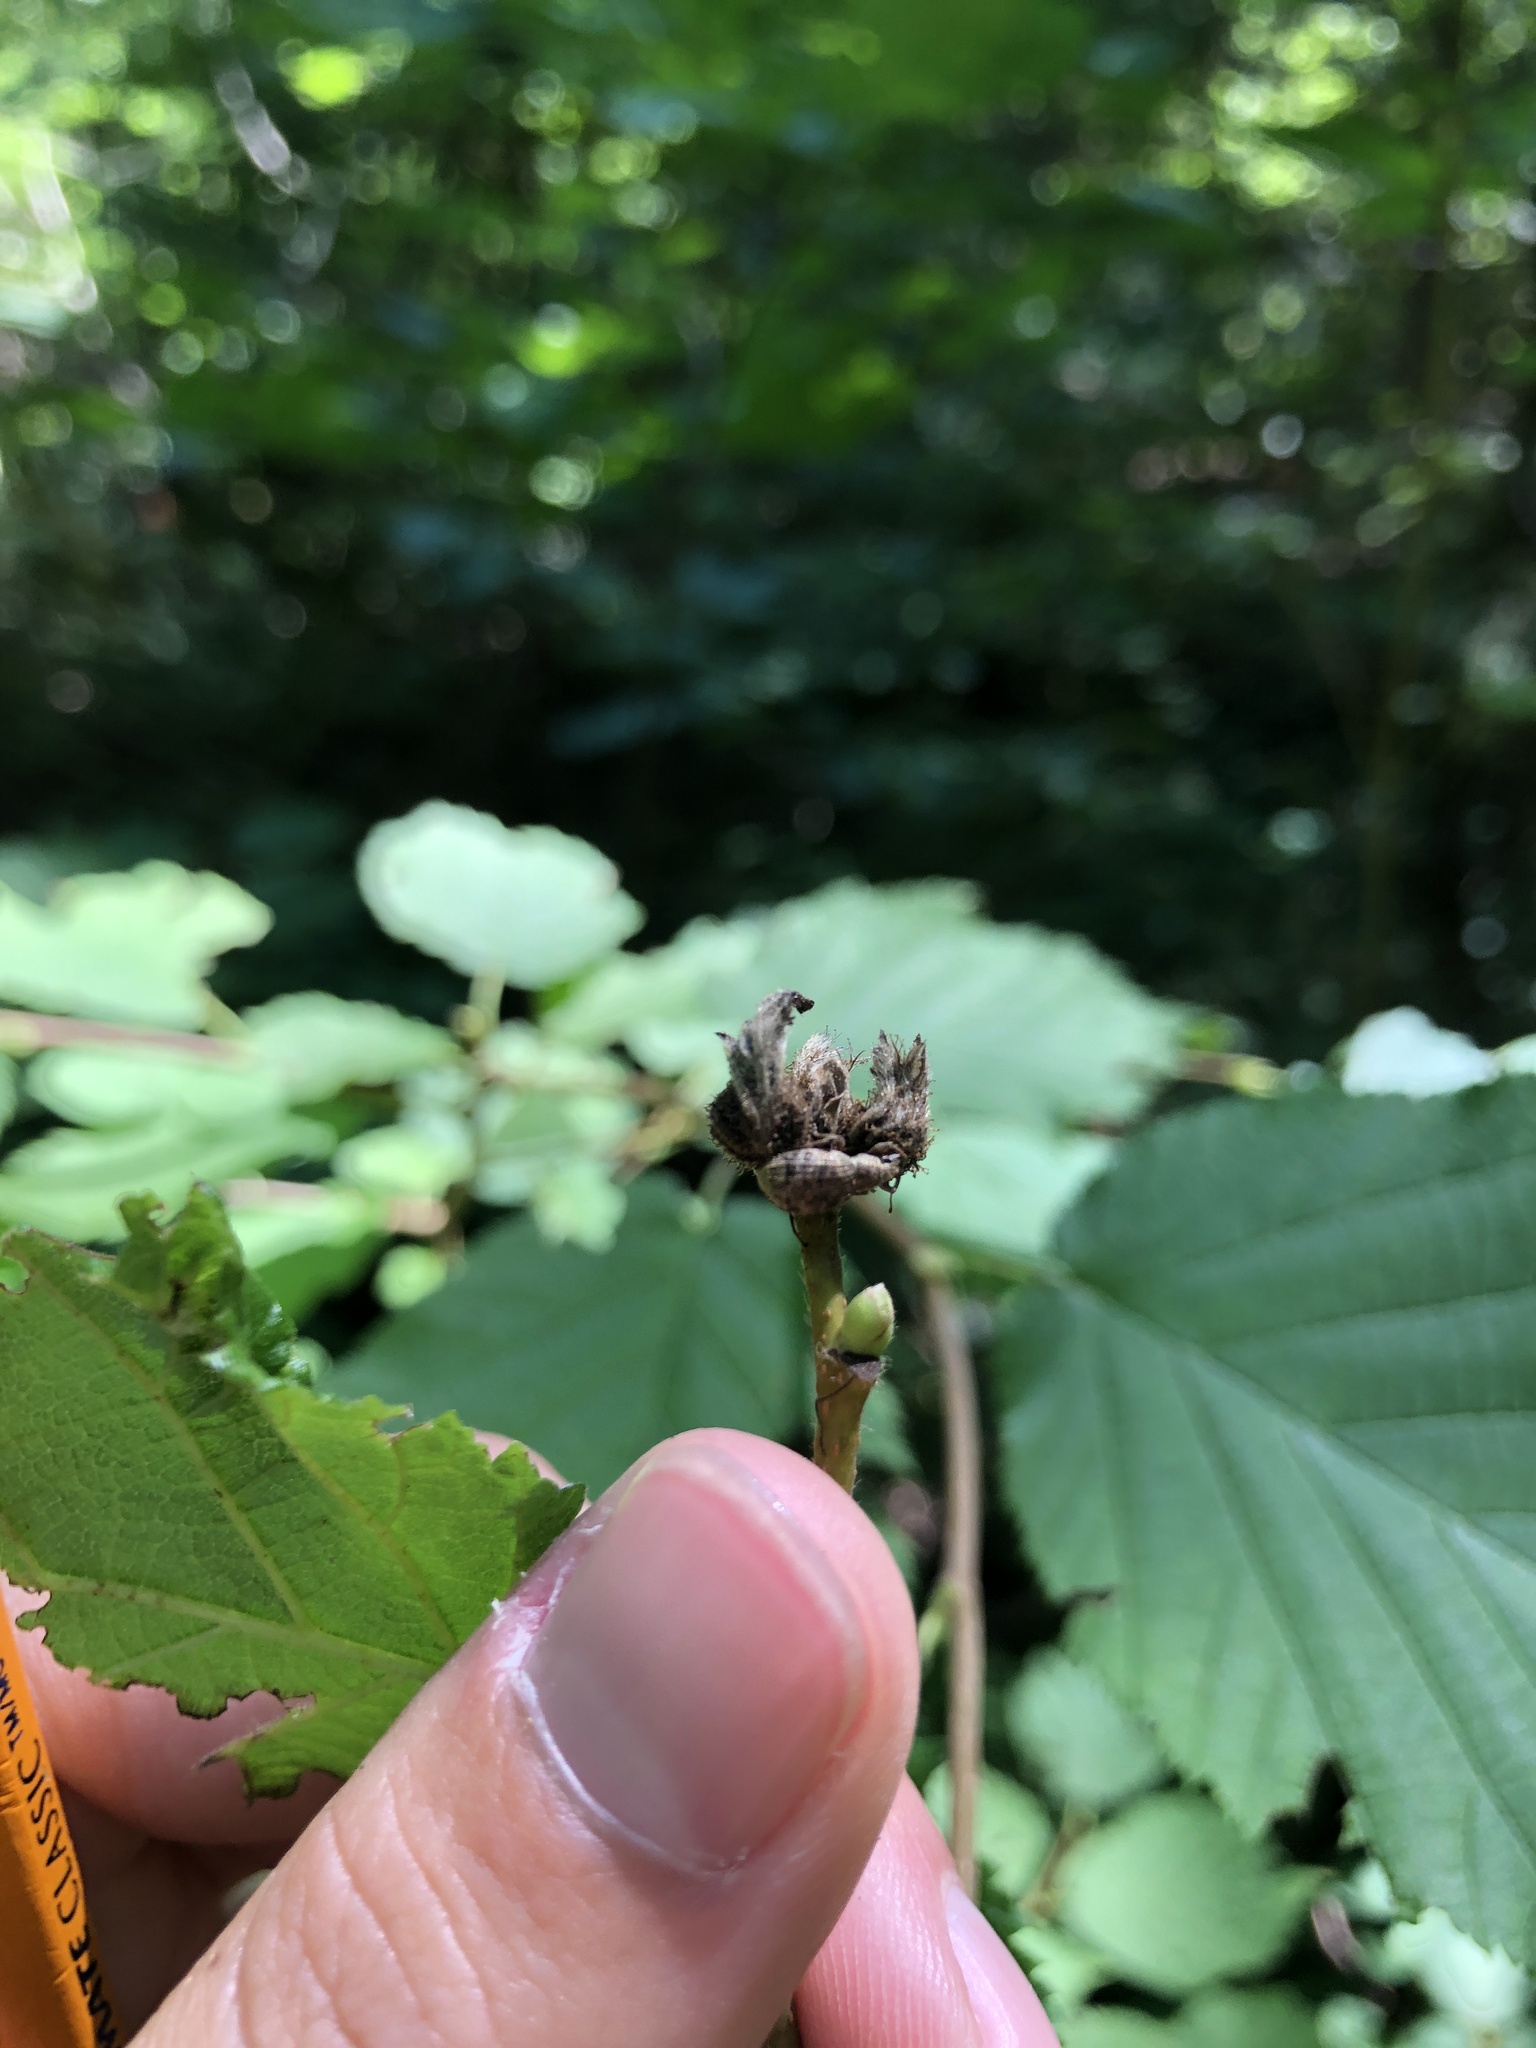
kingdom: Plantae
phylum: Tracheophyta
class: Magnoliopsida
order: Fagales
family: Betulaceae
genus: Corylus
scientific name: Corylus cornuta
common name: Beaked hazel
